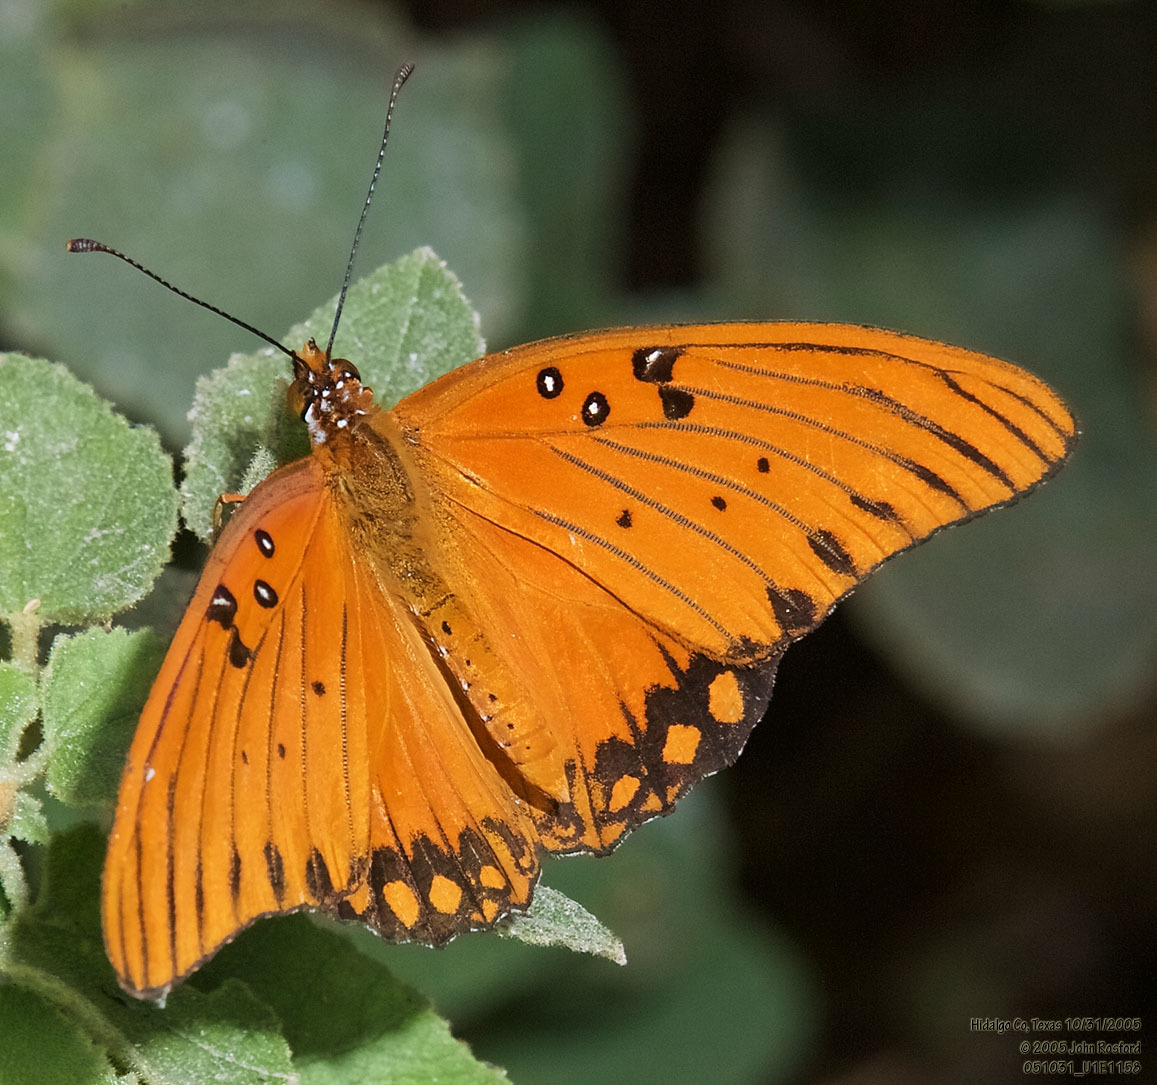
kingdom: Animalia
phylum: Arthropoda
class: Insecta
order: Lepidoptera
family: Nymphalidae
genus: Dione
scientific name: Dione vanillae
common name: Gulf fritillary
